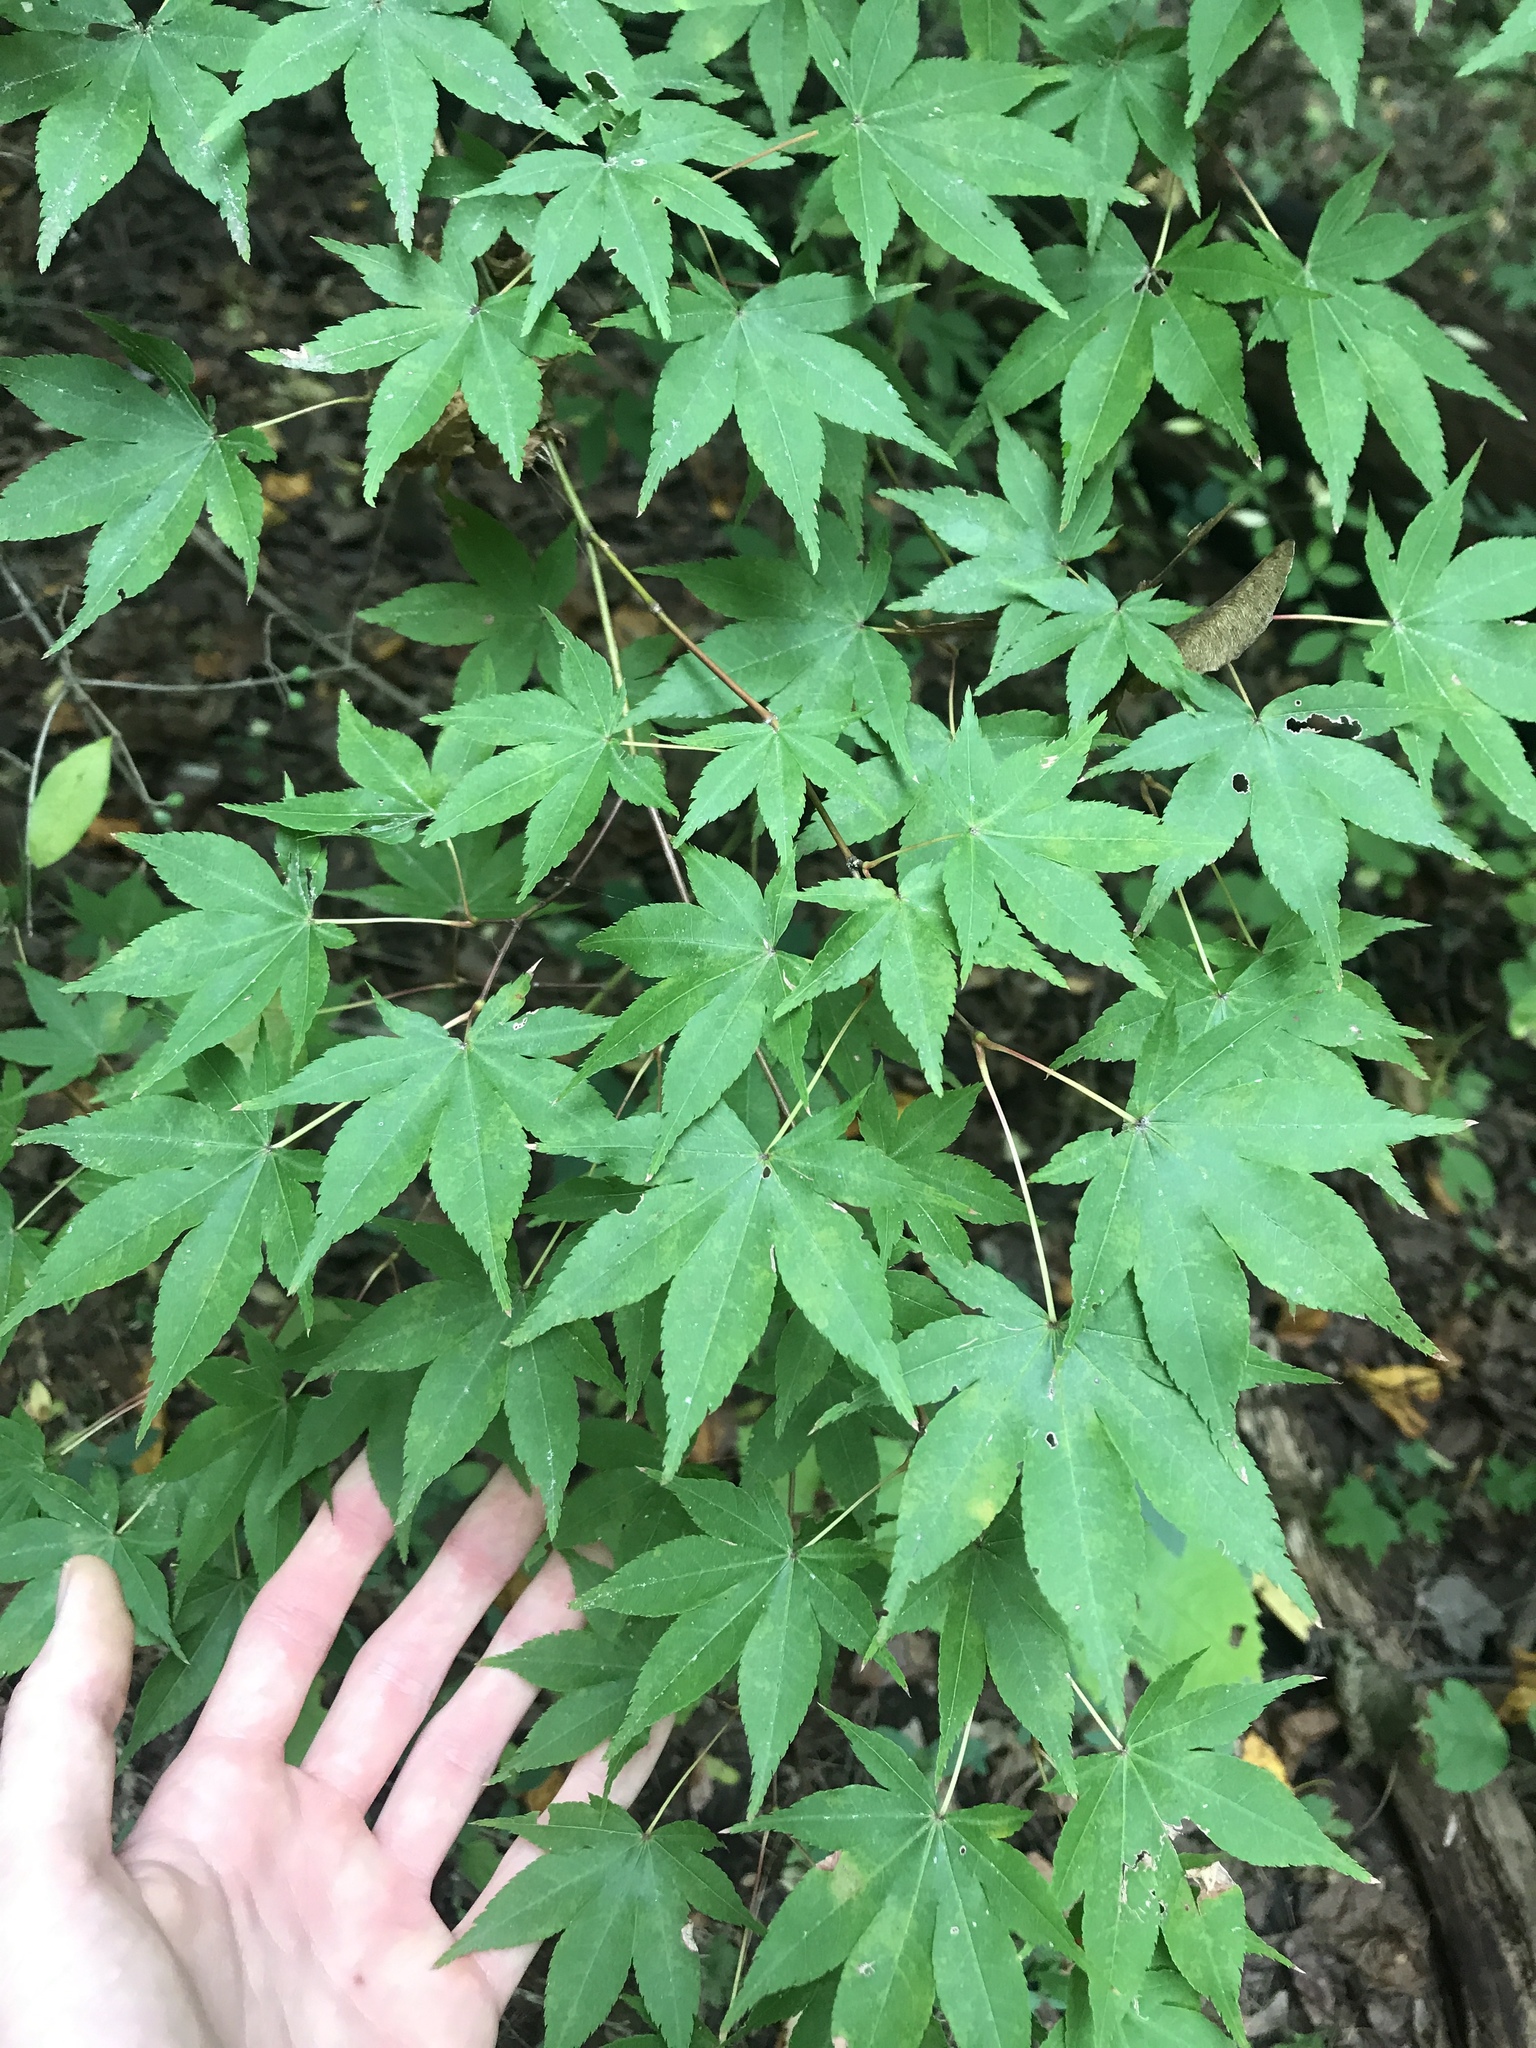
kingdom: Plantae
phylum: Tracheophyta
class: Magnoliopsida
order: Sapindales
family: Sapindaceae
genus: Acer
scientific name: Acer palmatum
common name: Japanese maple
